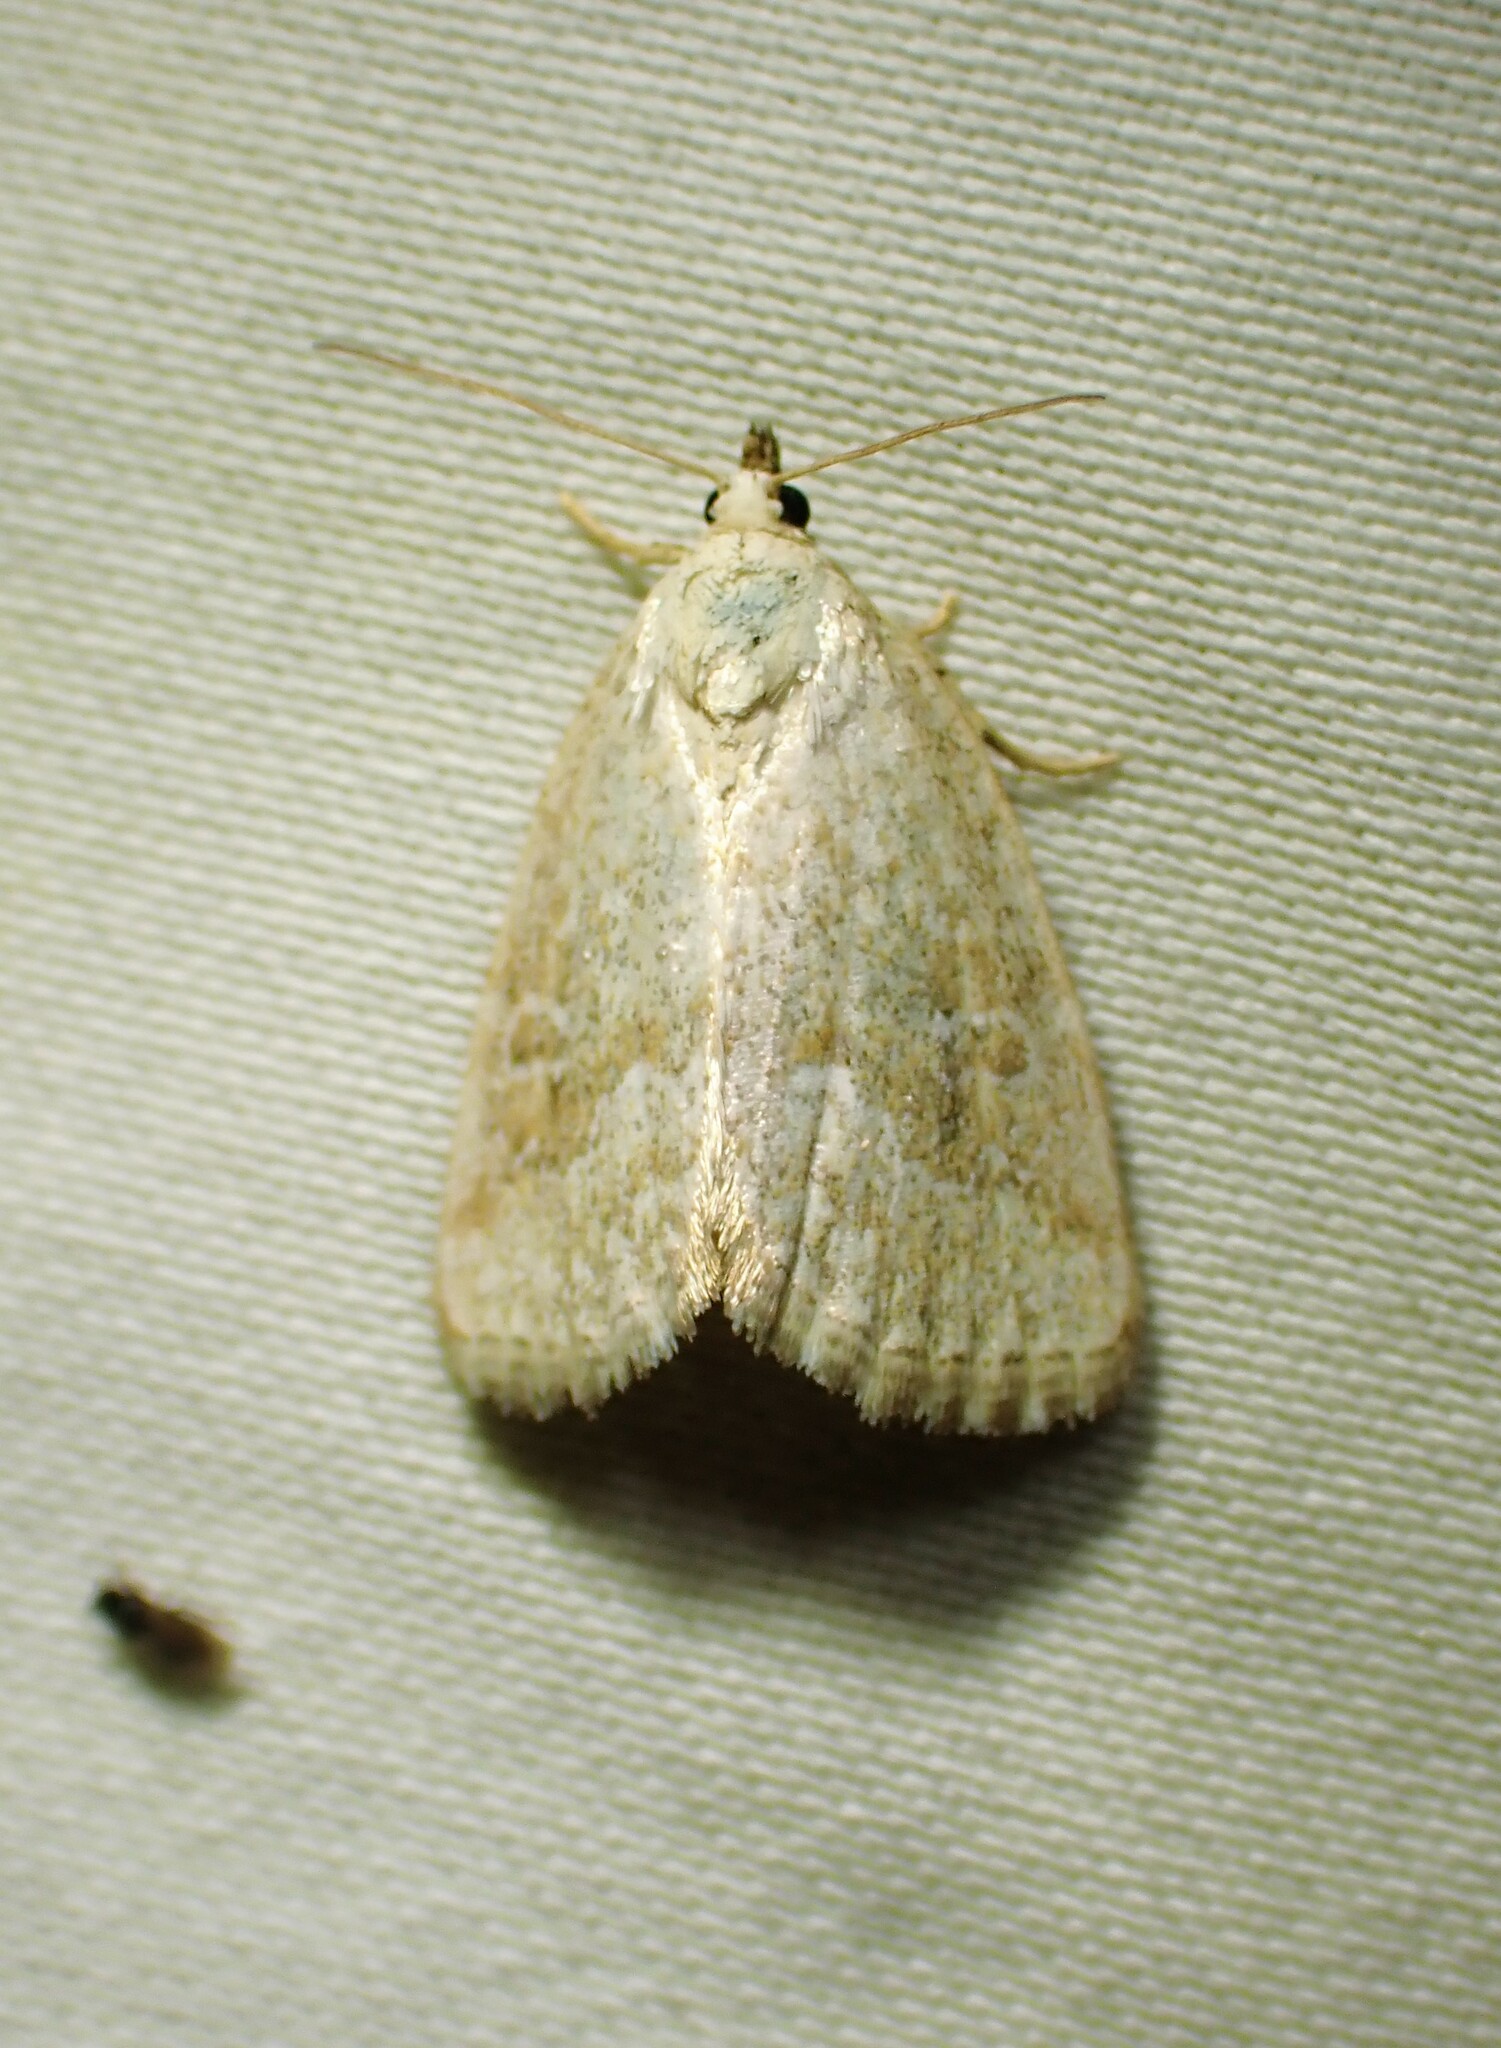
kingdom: Animalia
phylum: Arthropoda
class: Insecta
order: Lepidoptera
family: Noctuidae
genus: Protodeltote
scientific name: Protodeltote albidula
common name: Pale glyph
